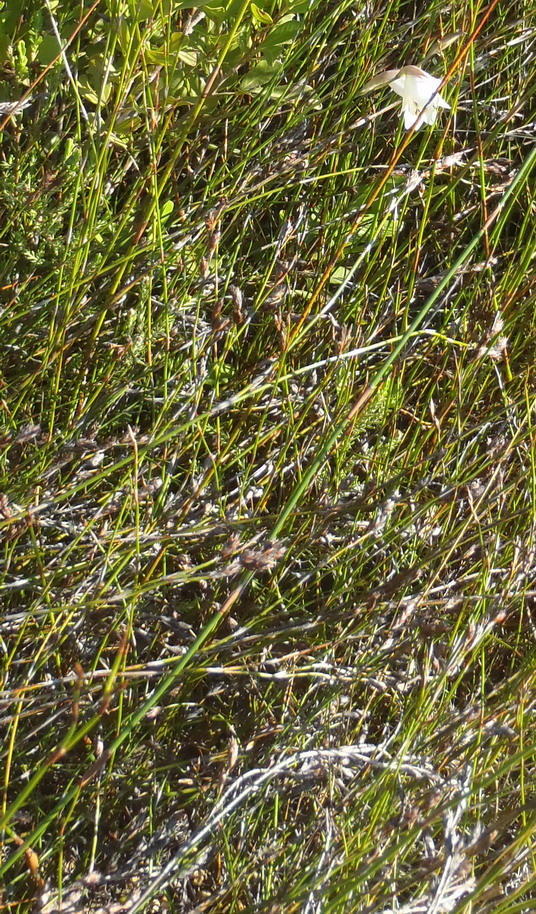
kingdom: Plantae
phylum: Tracheophyta
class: Liliopsida
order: Asparagales
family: Iridaceae
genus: Gladiolus
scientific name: Gladiolus patersoniae
